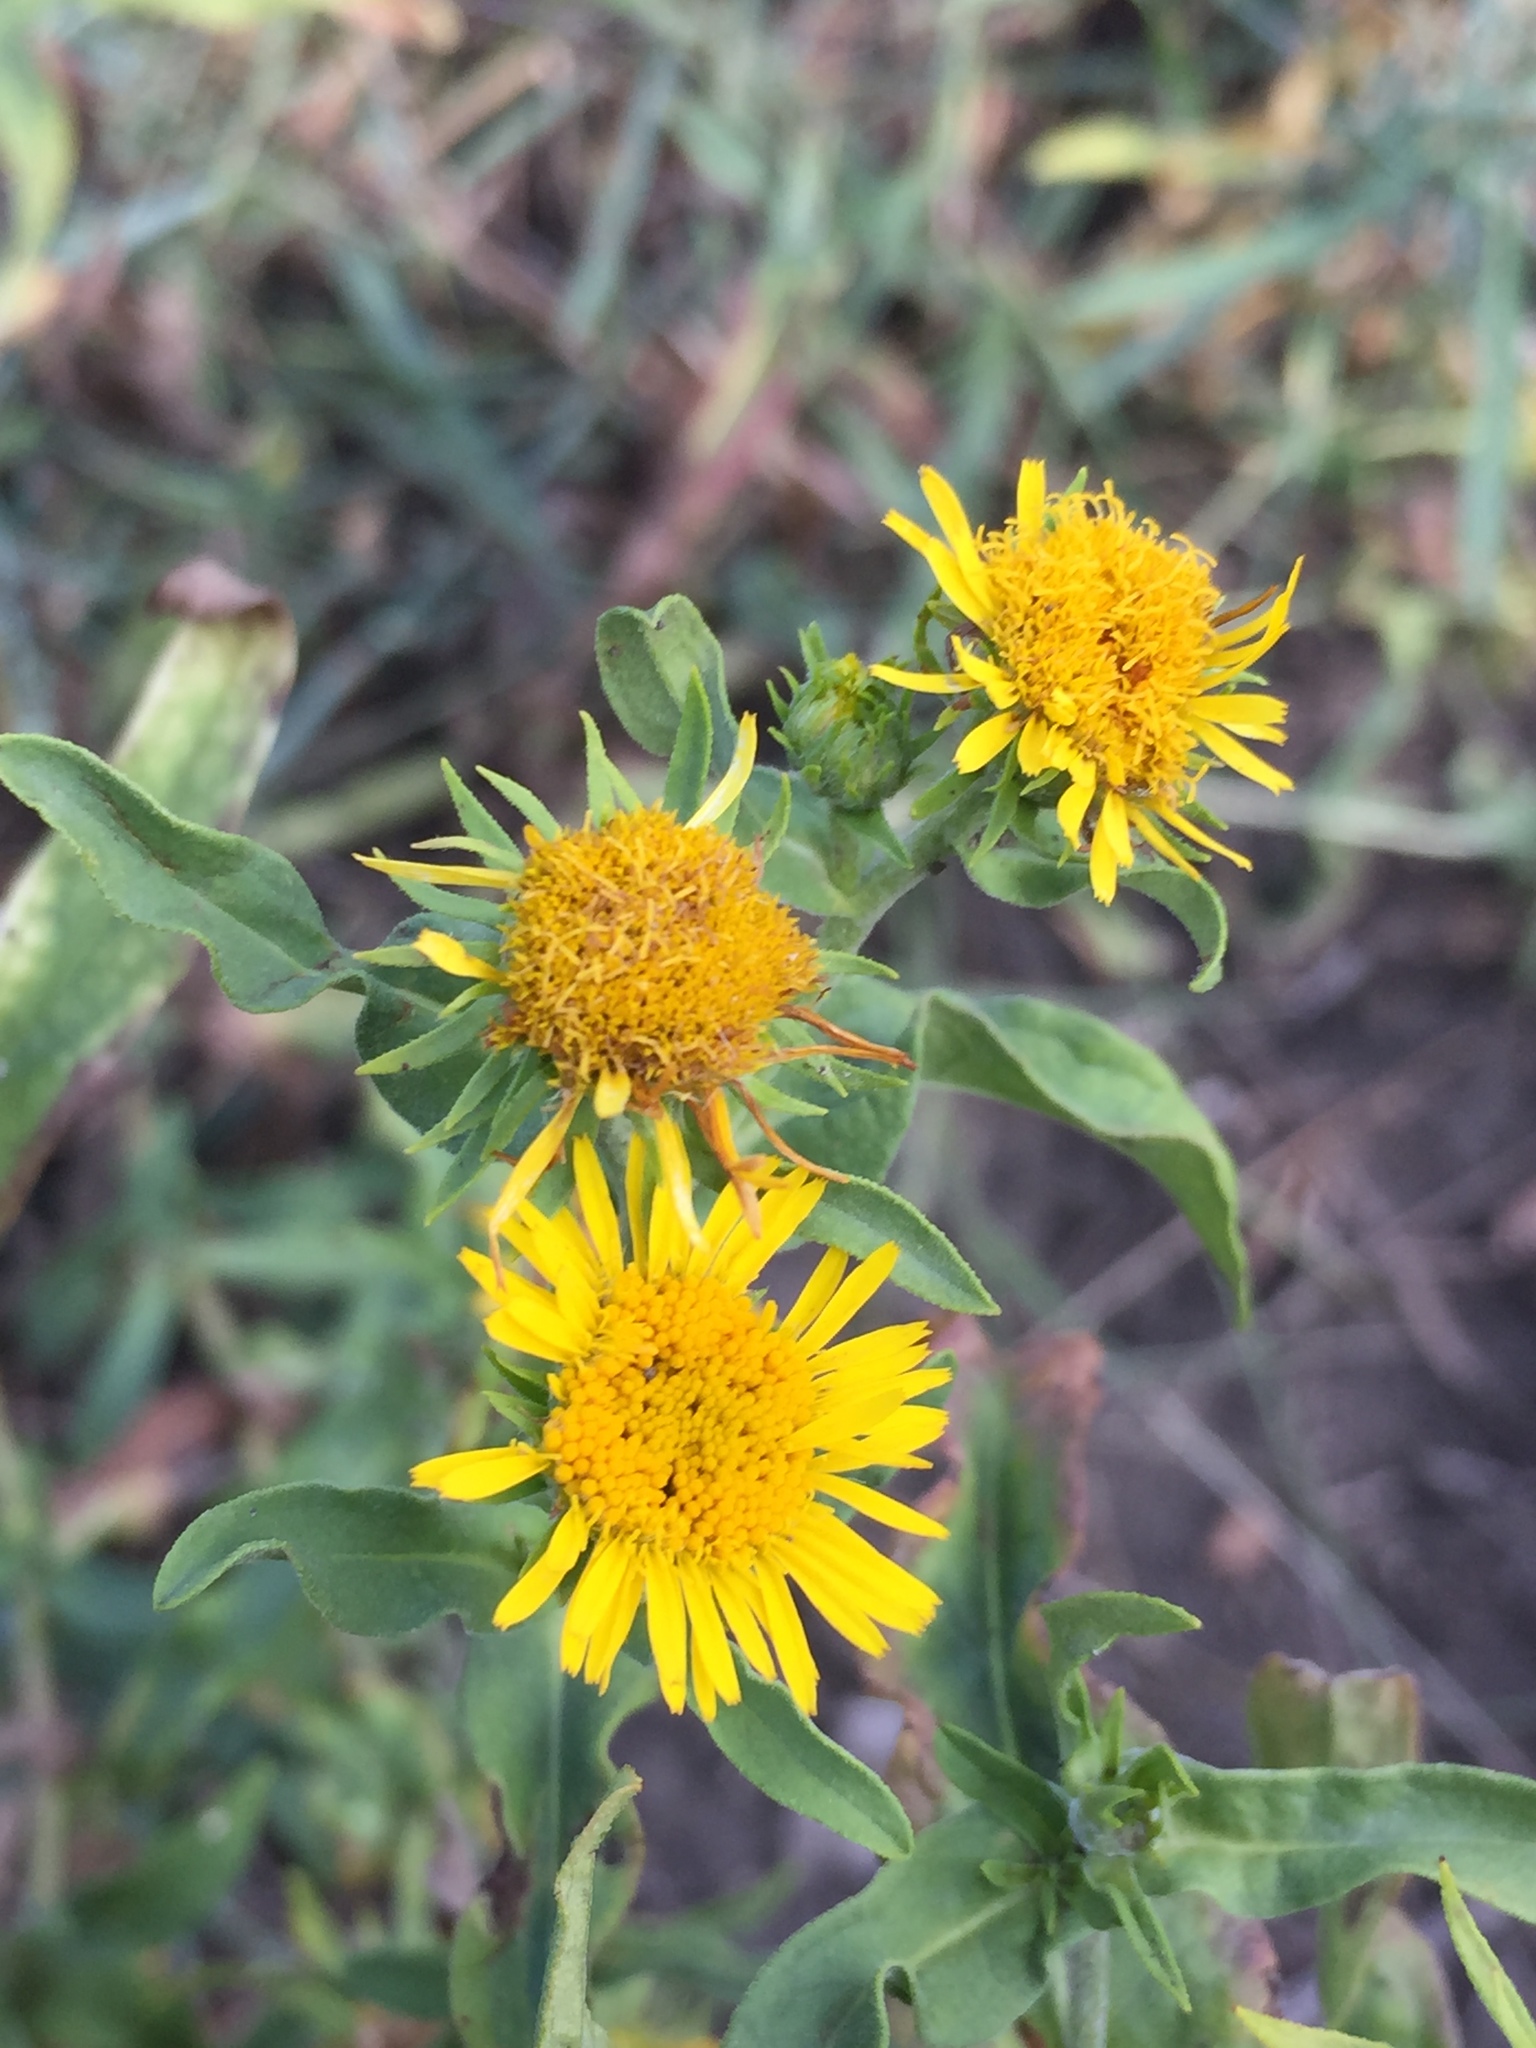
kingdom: Plantae
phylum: Tracheophyta
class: Magnoliopsida
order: Asterales
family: Asteraceae
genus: Pentanema
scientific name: Pentanema britannicum
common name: British elecampane
